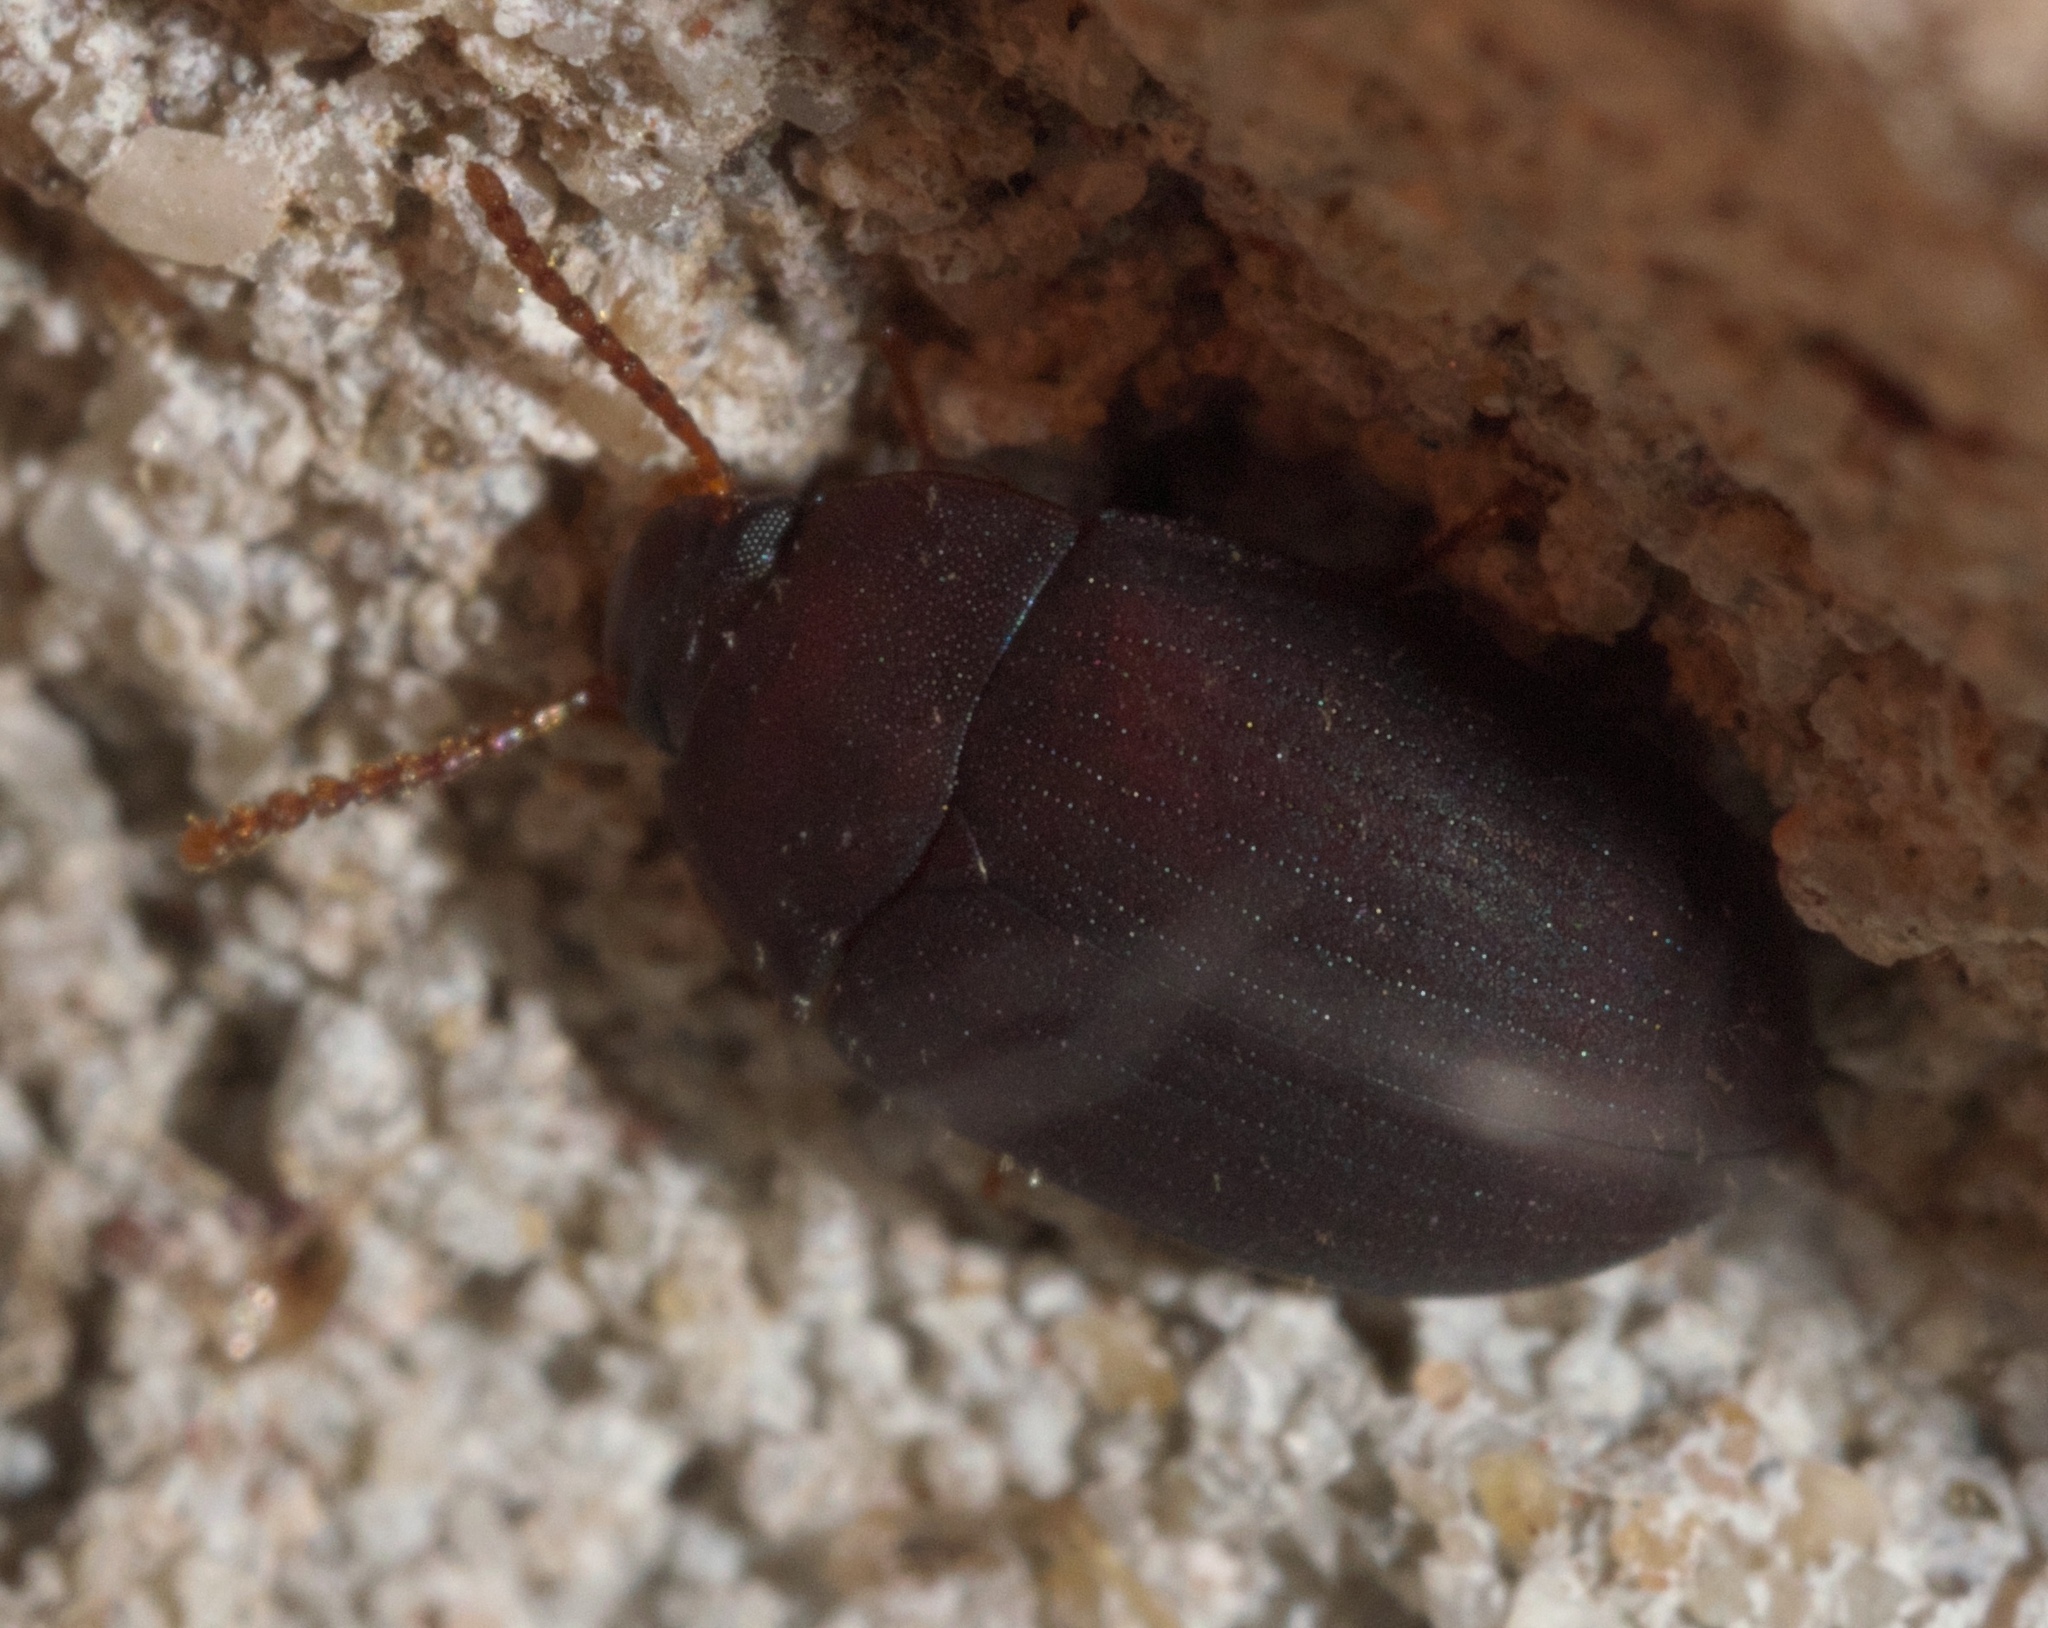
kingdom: Animalia
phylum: Arthropoda
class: Insecta
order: Coleoptera
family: Tenebrionidae
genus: Platydema
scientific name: Platydema ruficornis
